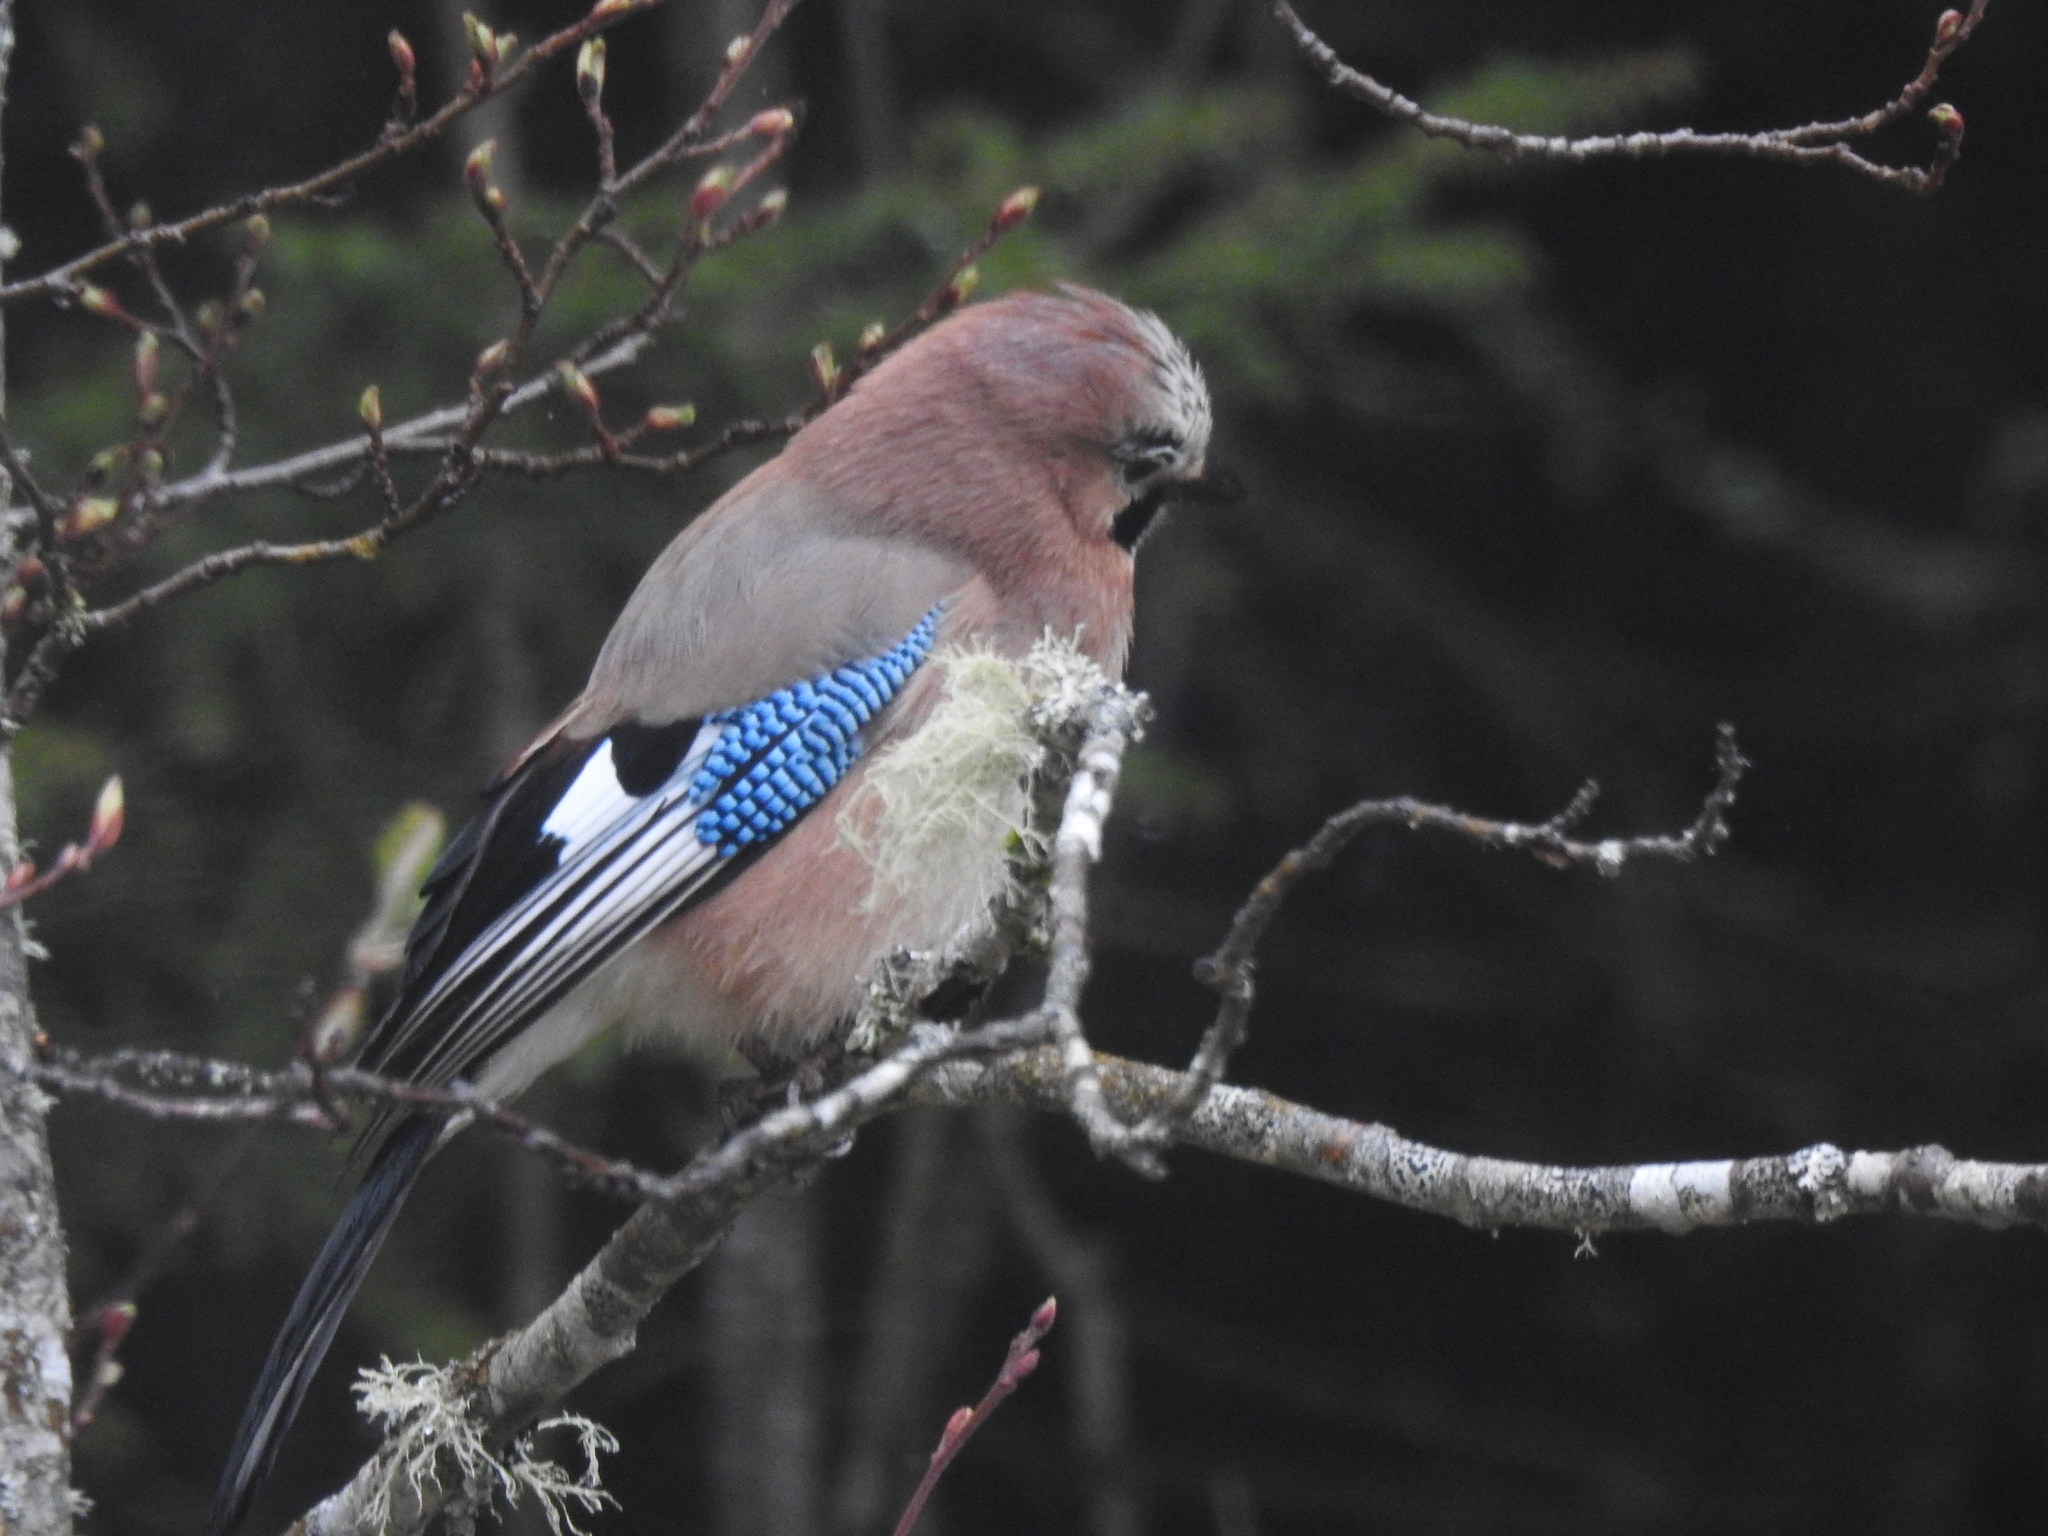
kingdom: Animalia
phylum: Chordata
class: Aves
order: Passeriformes
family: Corvidae
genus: Garrulus
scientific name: Garrulus glandarius
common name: Eurasian jay
